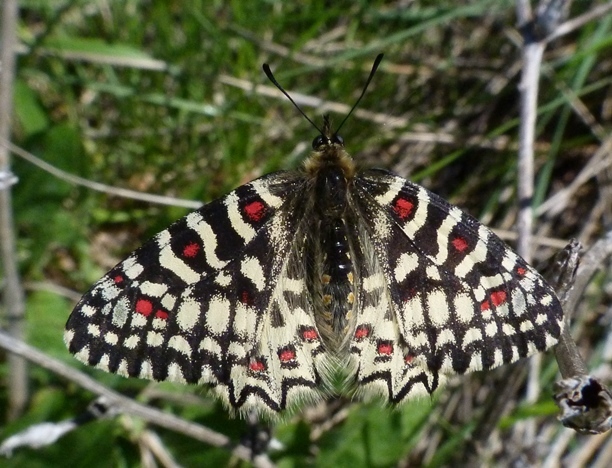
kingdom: Animalia
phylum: Arthropoda
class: Insecta
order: Lepidoptera
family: Papilionidae
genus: Zerynthia
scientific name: Zerynthia rumina
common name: Spanish festoon
